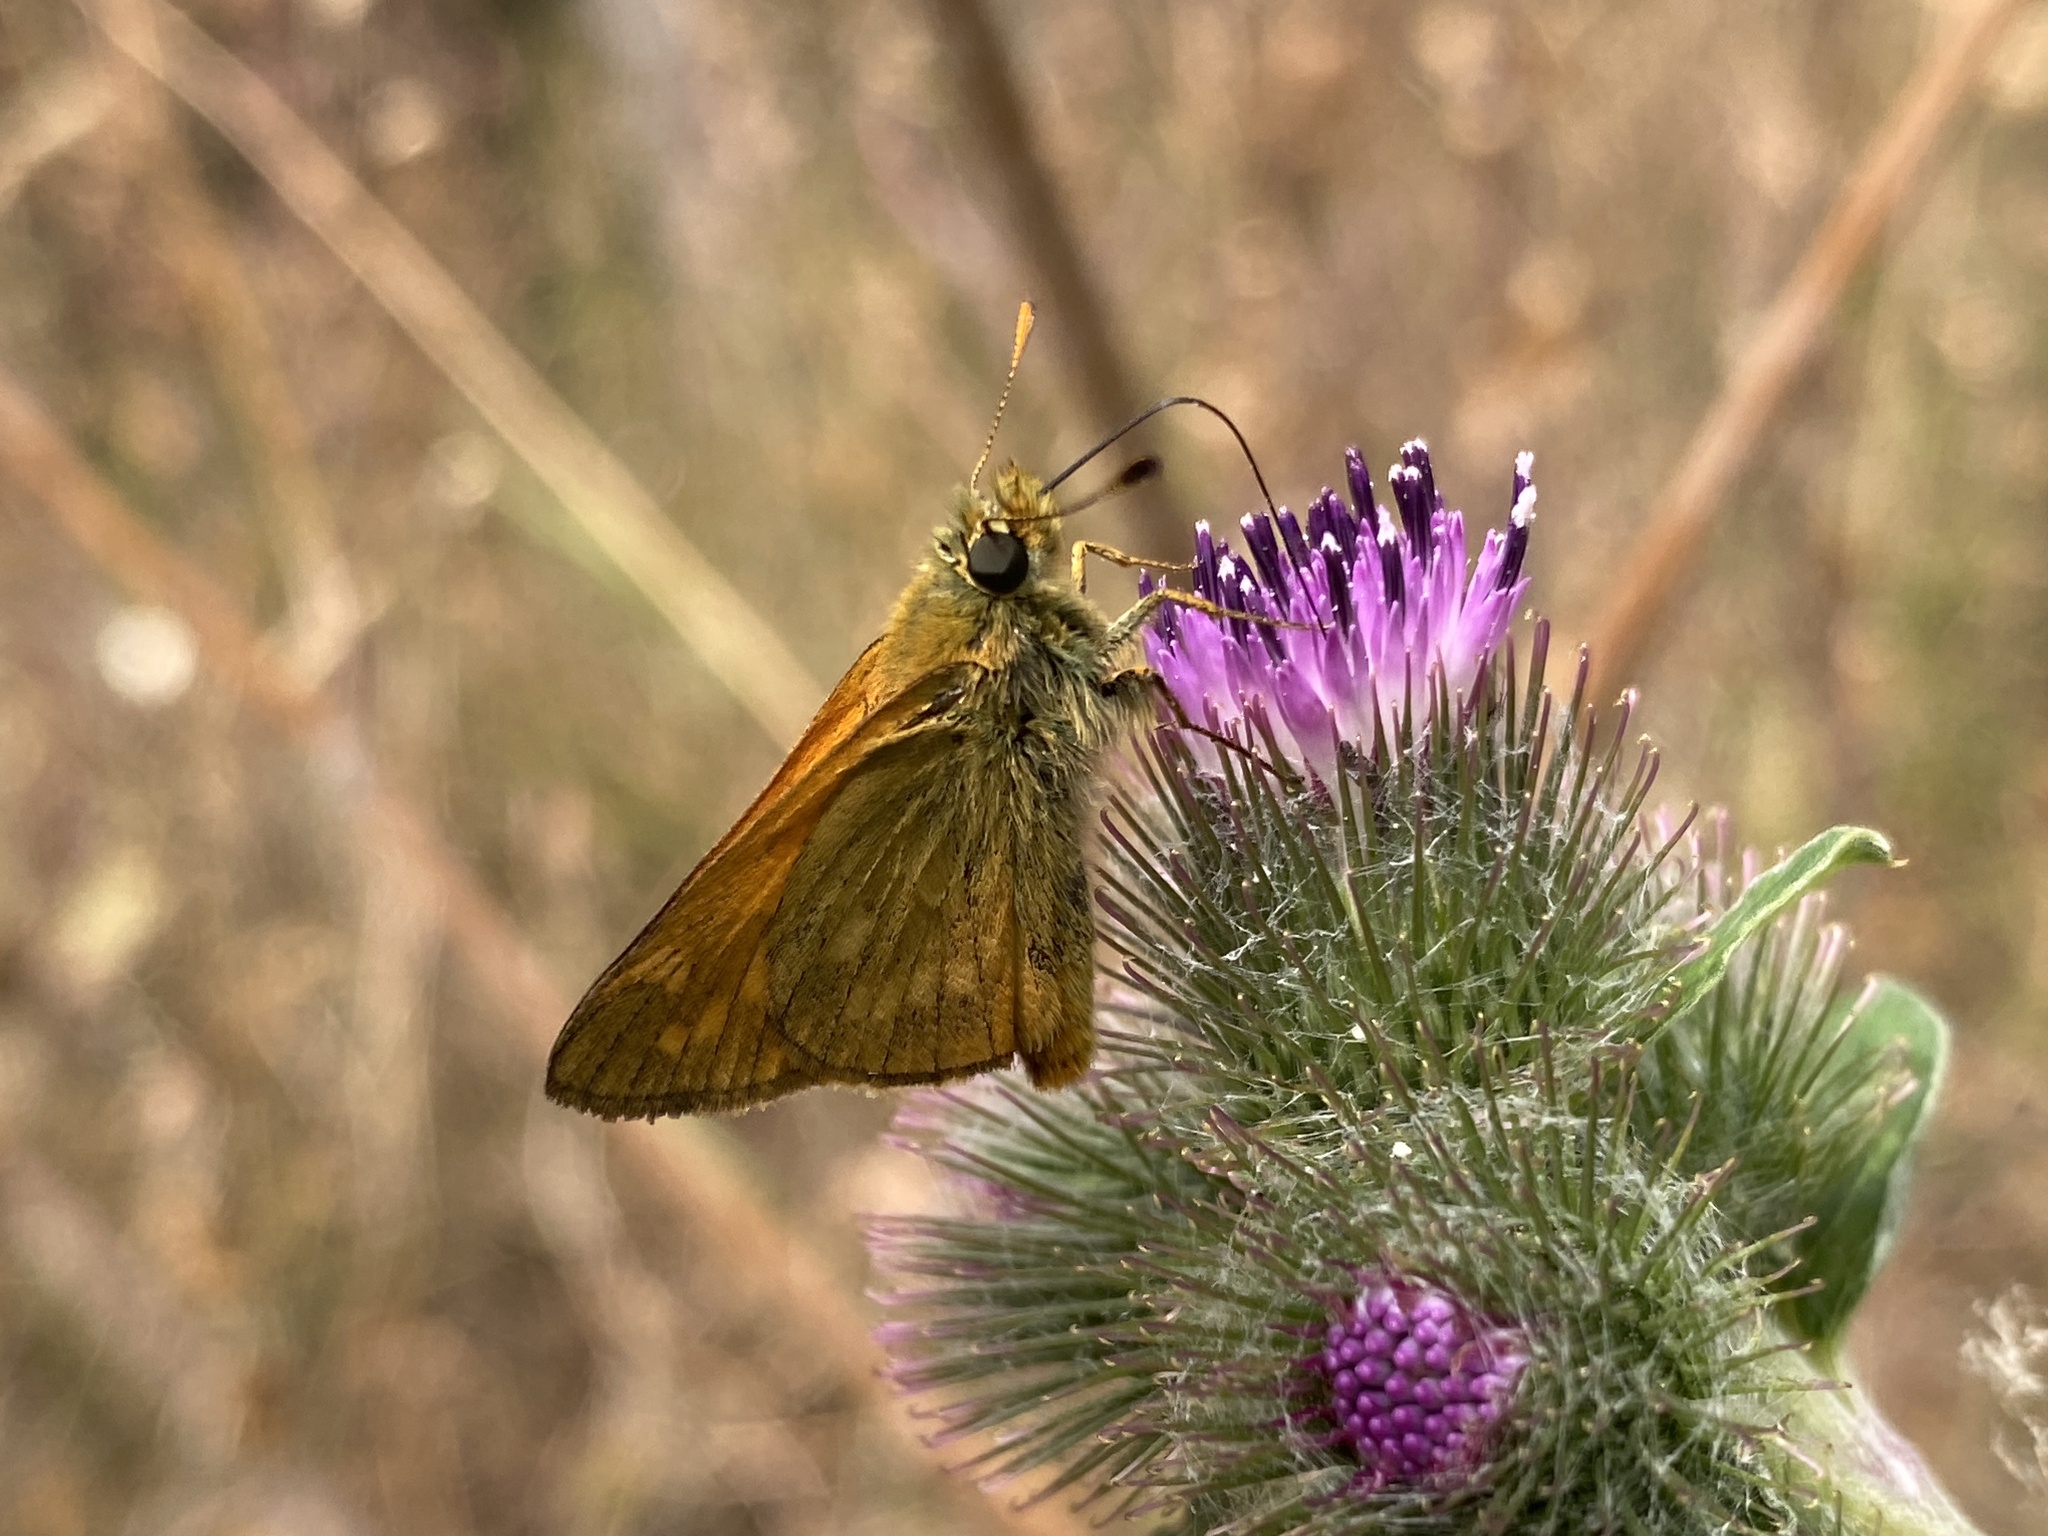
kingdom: Animalia
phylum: Arthropoda
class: Insecta
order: Lepidoptera
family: Hesperiidae
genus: Ochlodes
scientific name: Ochlodes venata
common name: Large skipper
